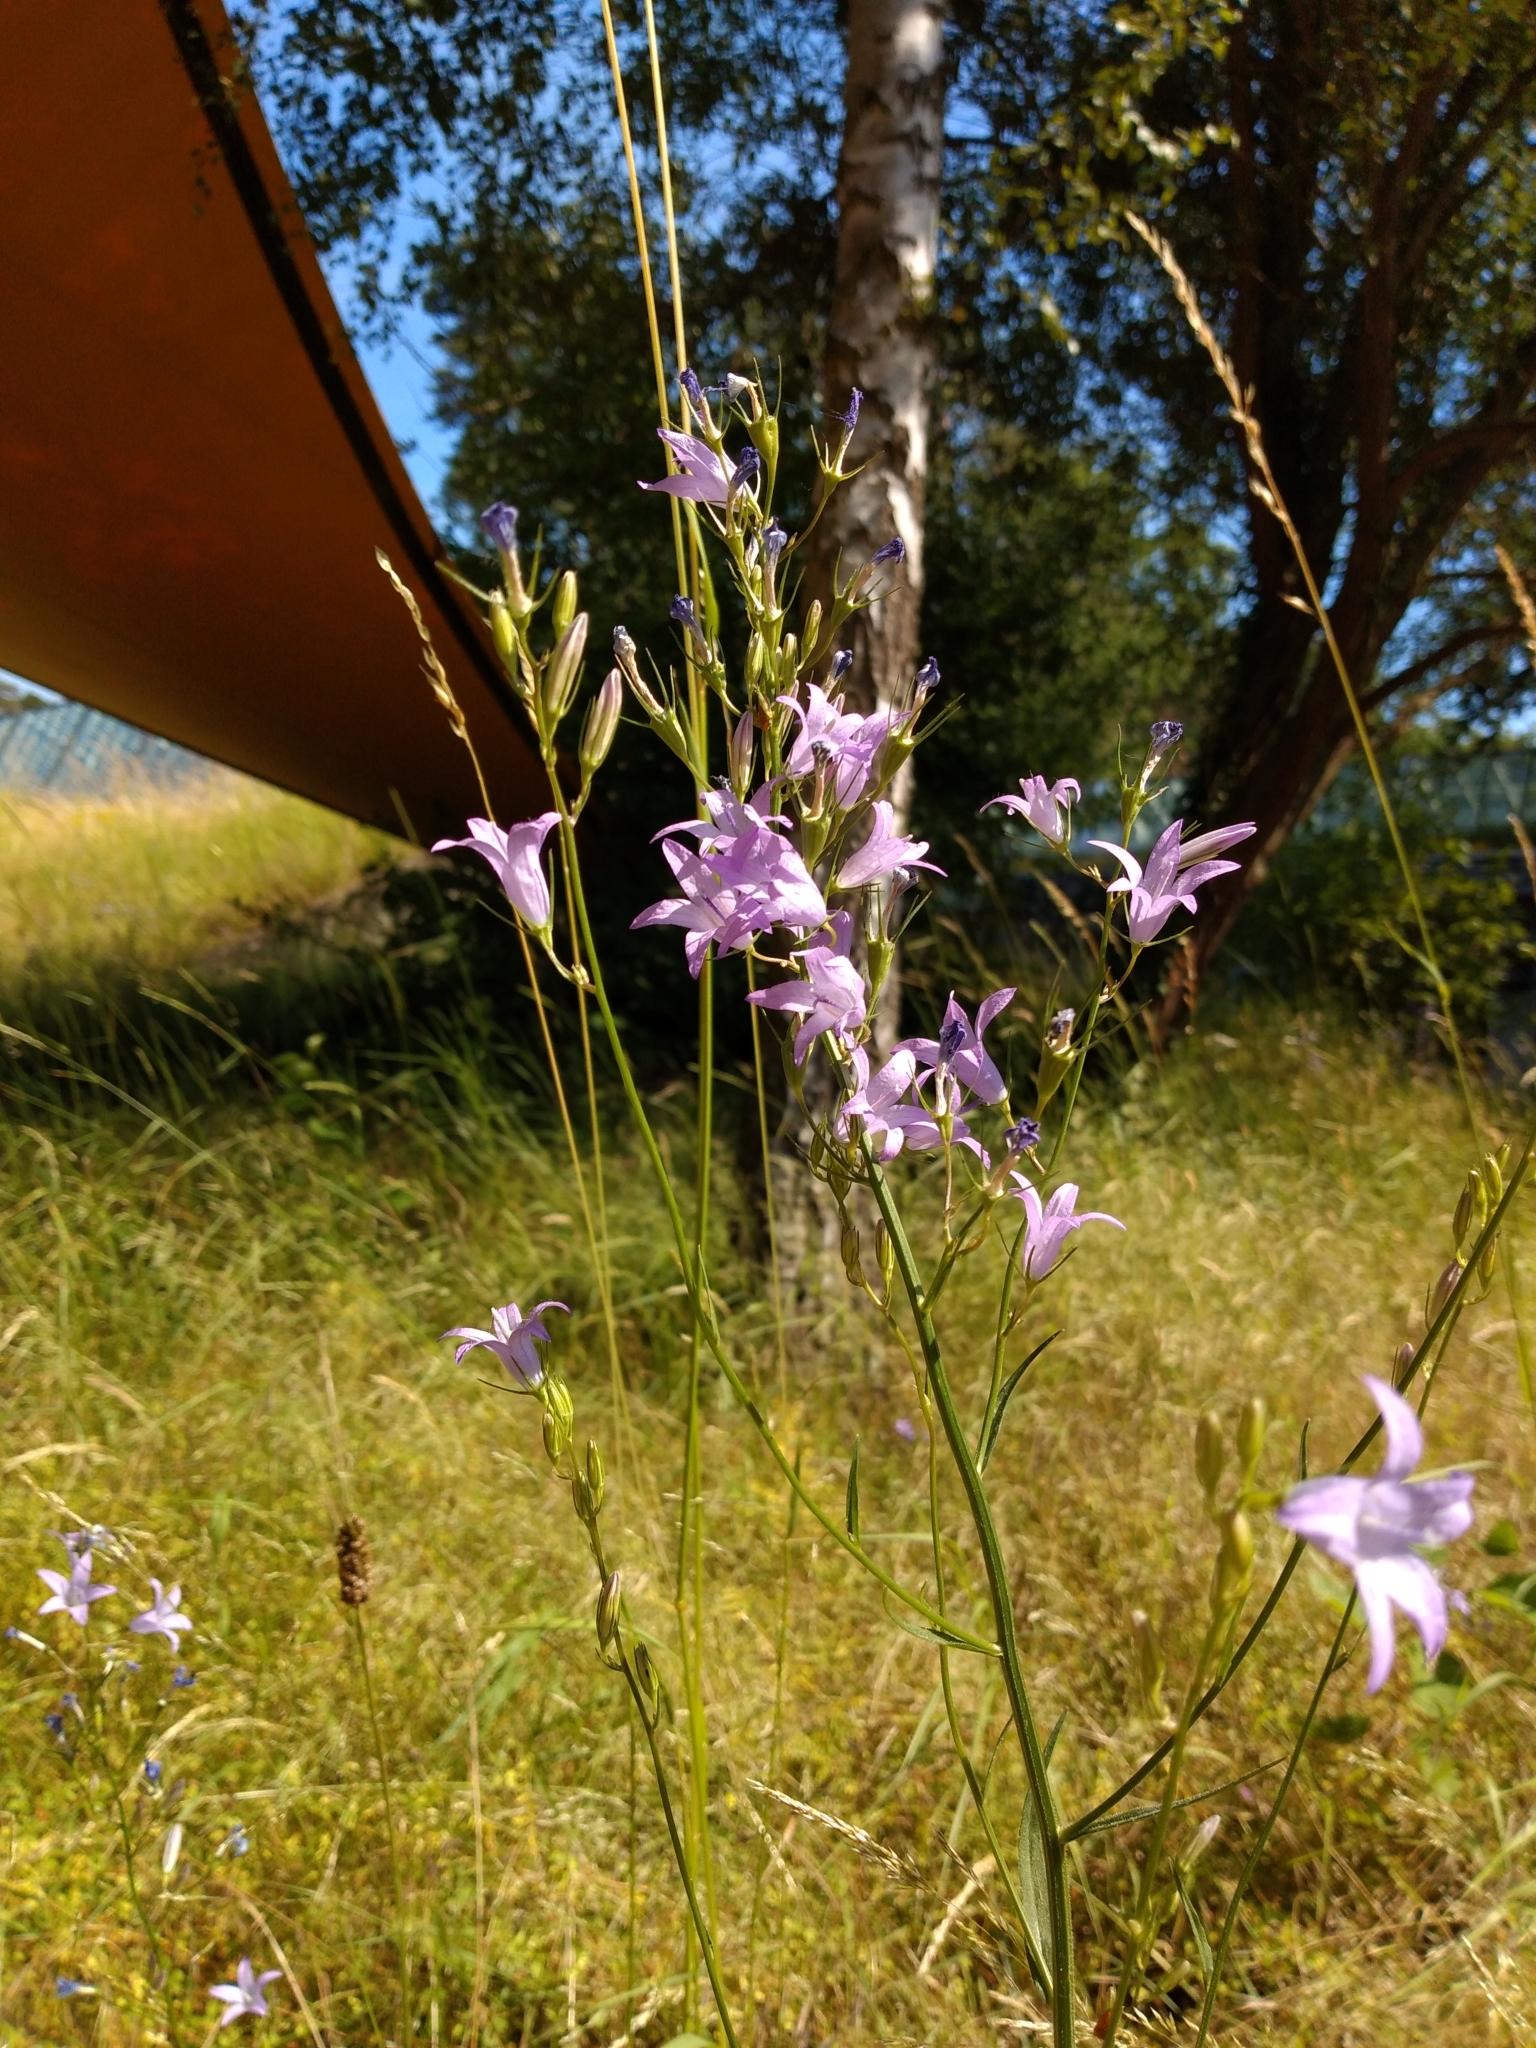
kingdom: Plantae
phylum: Tracheophyta
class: Magnoliopsida
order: Asterales
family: Campanulaceae
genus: Campanula
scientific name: Campanula rapunculus
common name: Rampion bellflower
